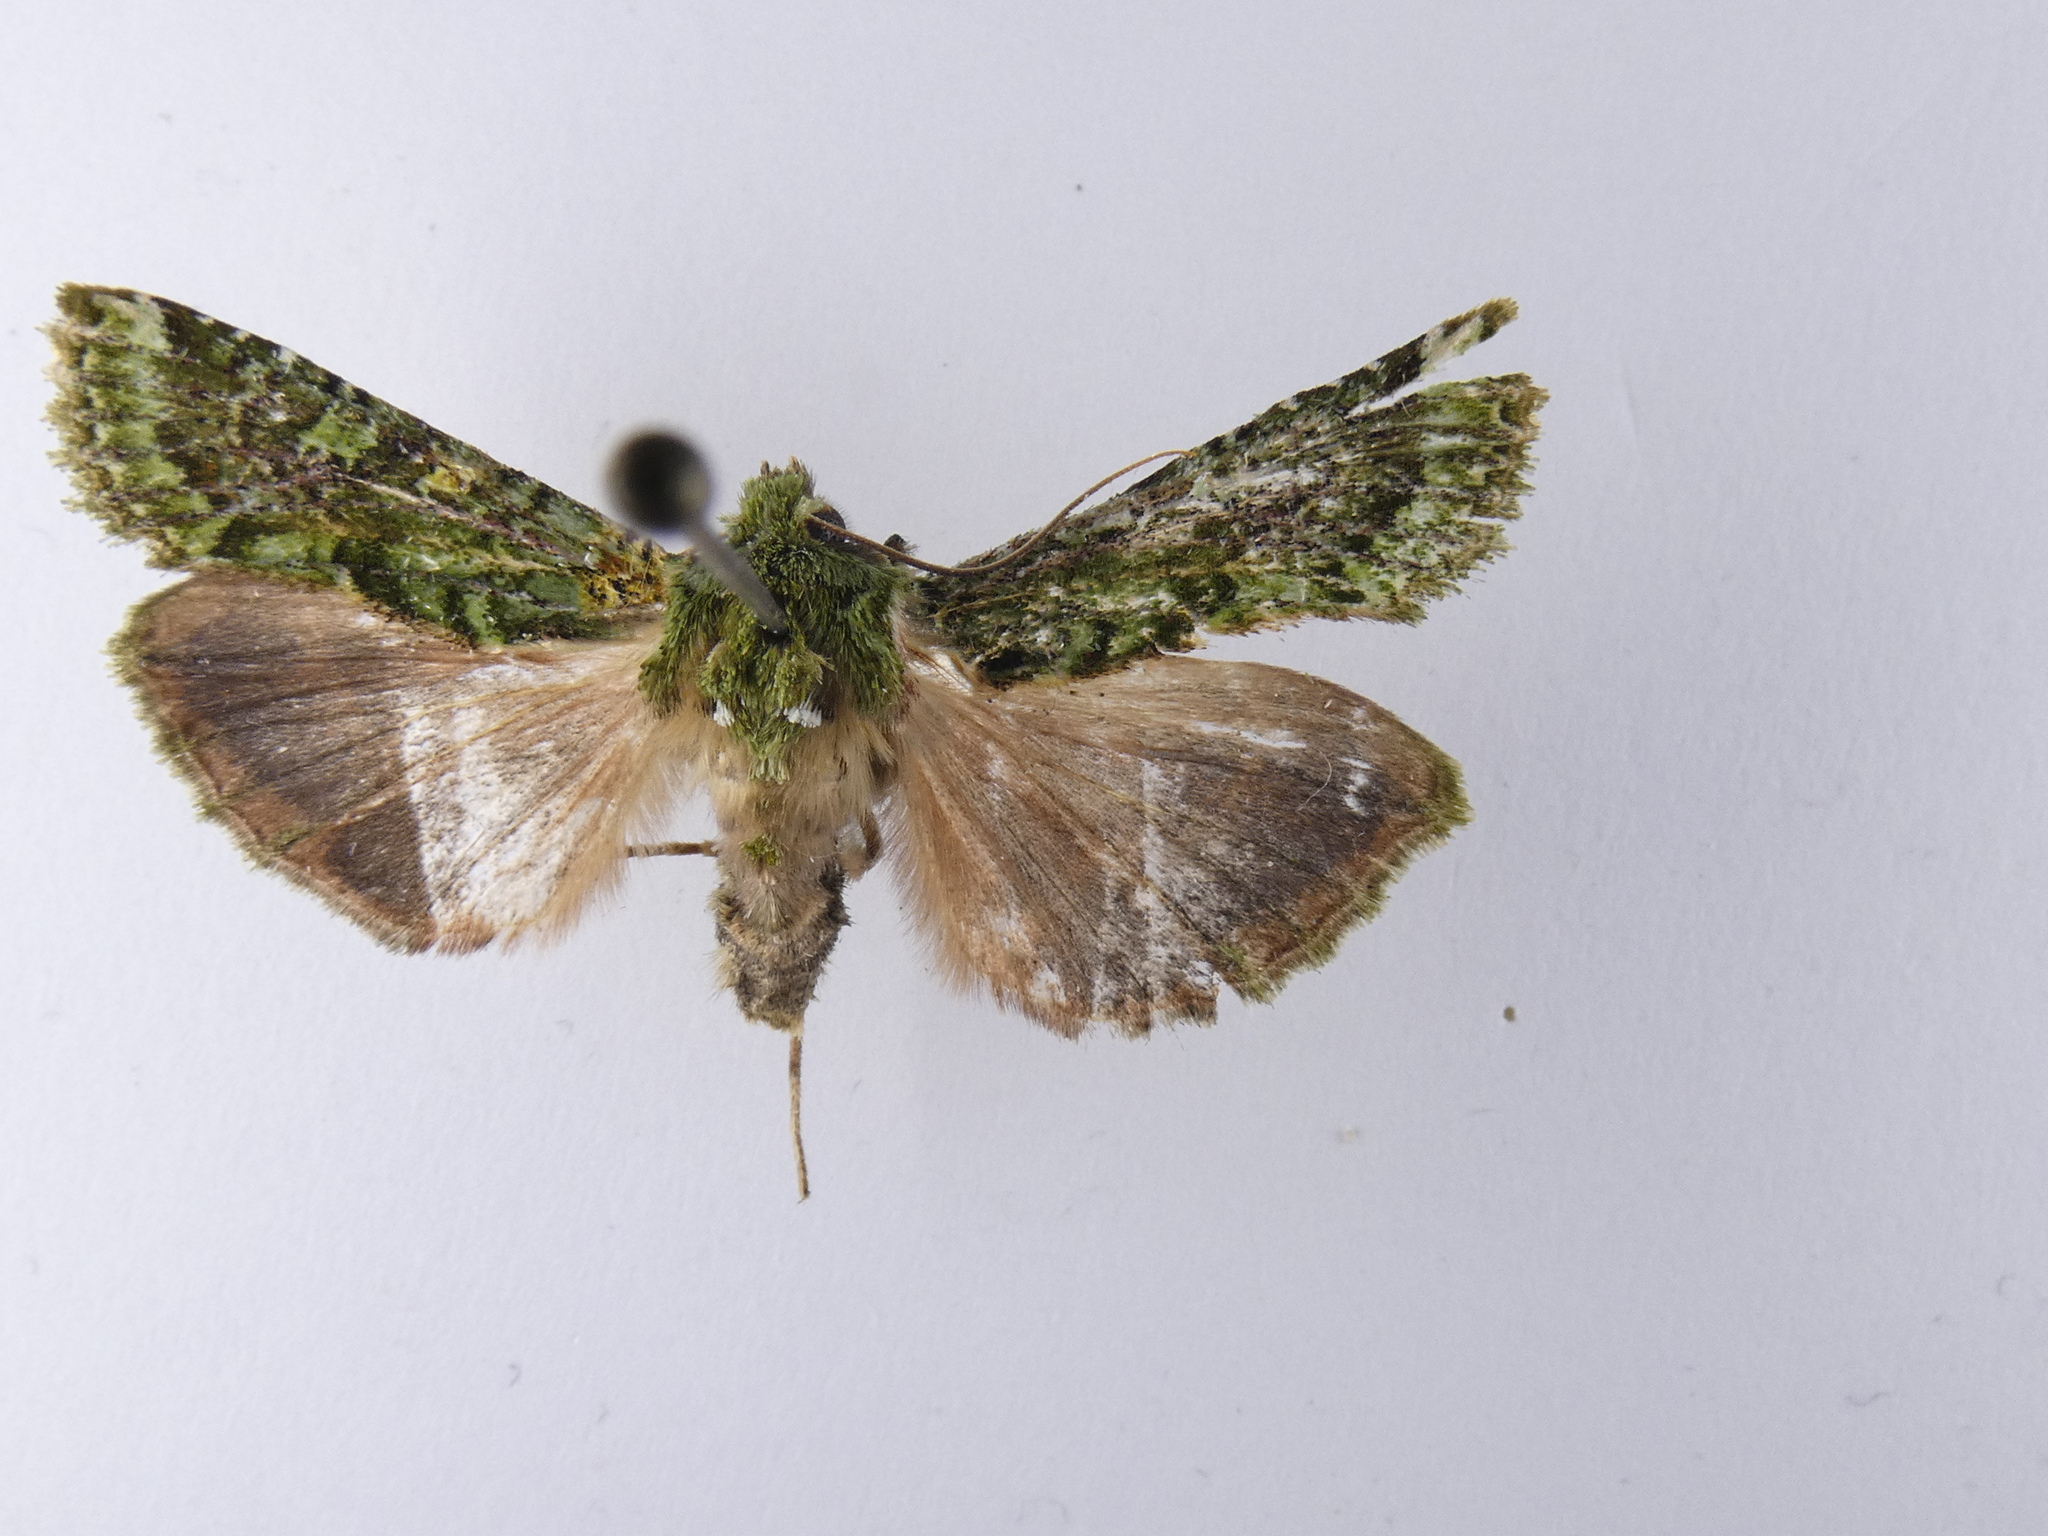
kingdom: Animalia
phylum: Arthropoda
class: Insecta
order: Lepidoptera
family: Noctuidae
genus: Feredayia
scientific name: Feredayia grammosa
